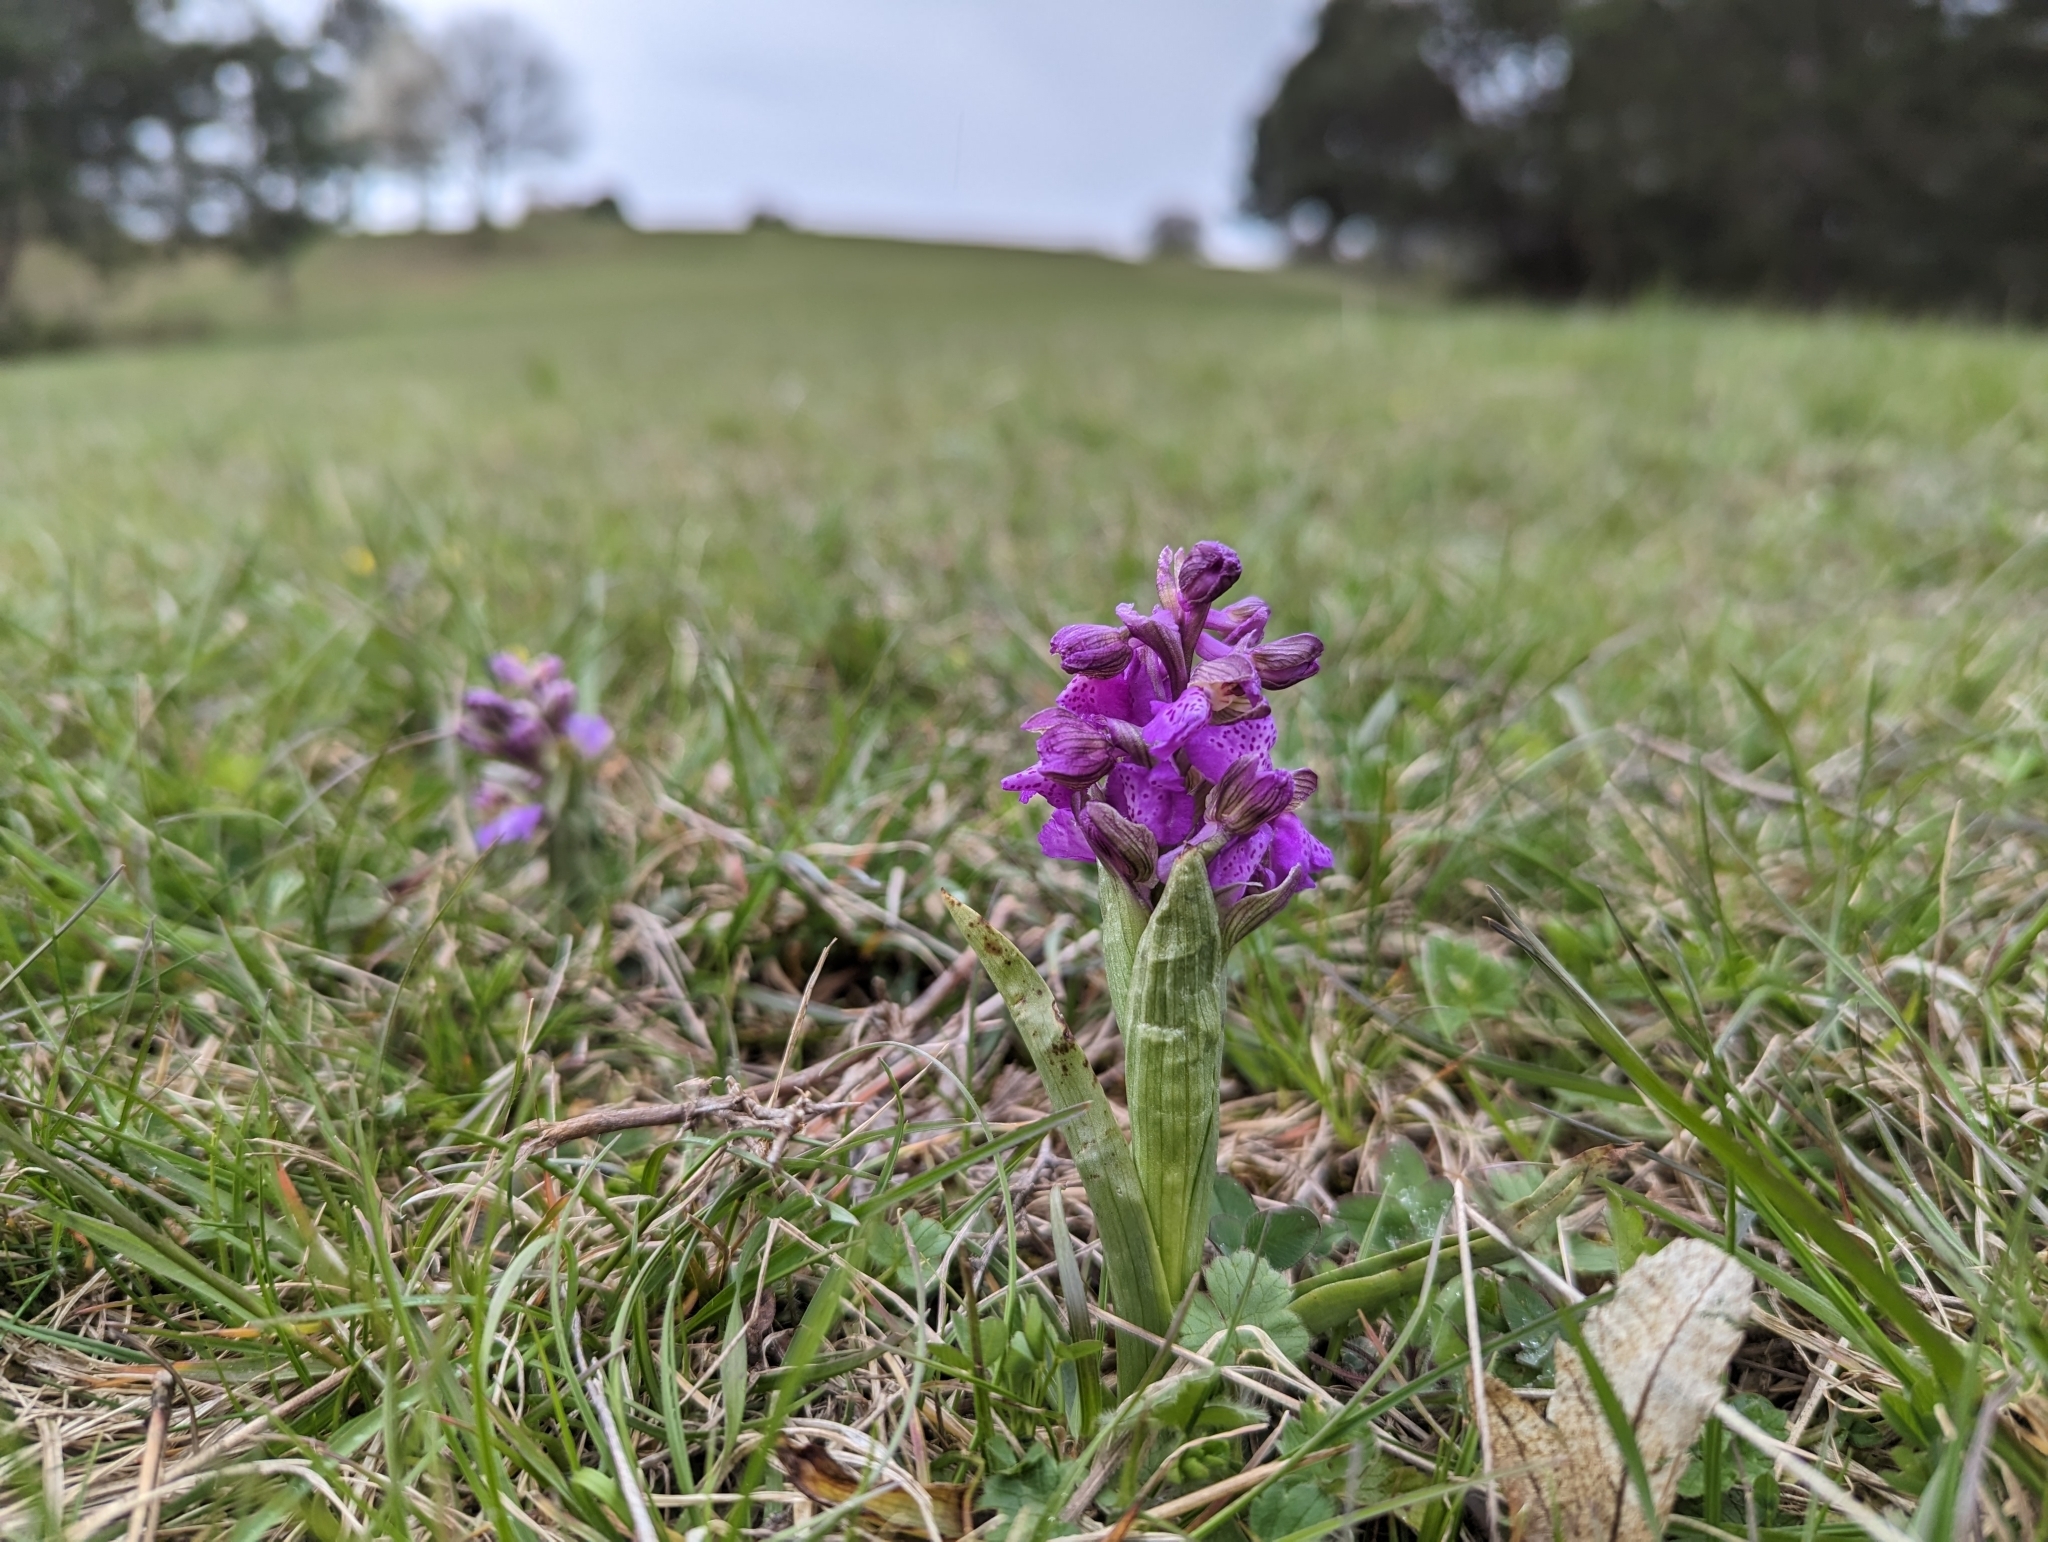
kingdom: Plantae
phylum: Tracheophyta
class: Liliopsida
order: Asparagales
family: Orchidaceae
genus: Anacamptis
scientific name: Anacamptis morio
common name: Green-winged orchid
